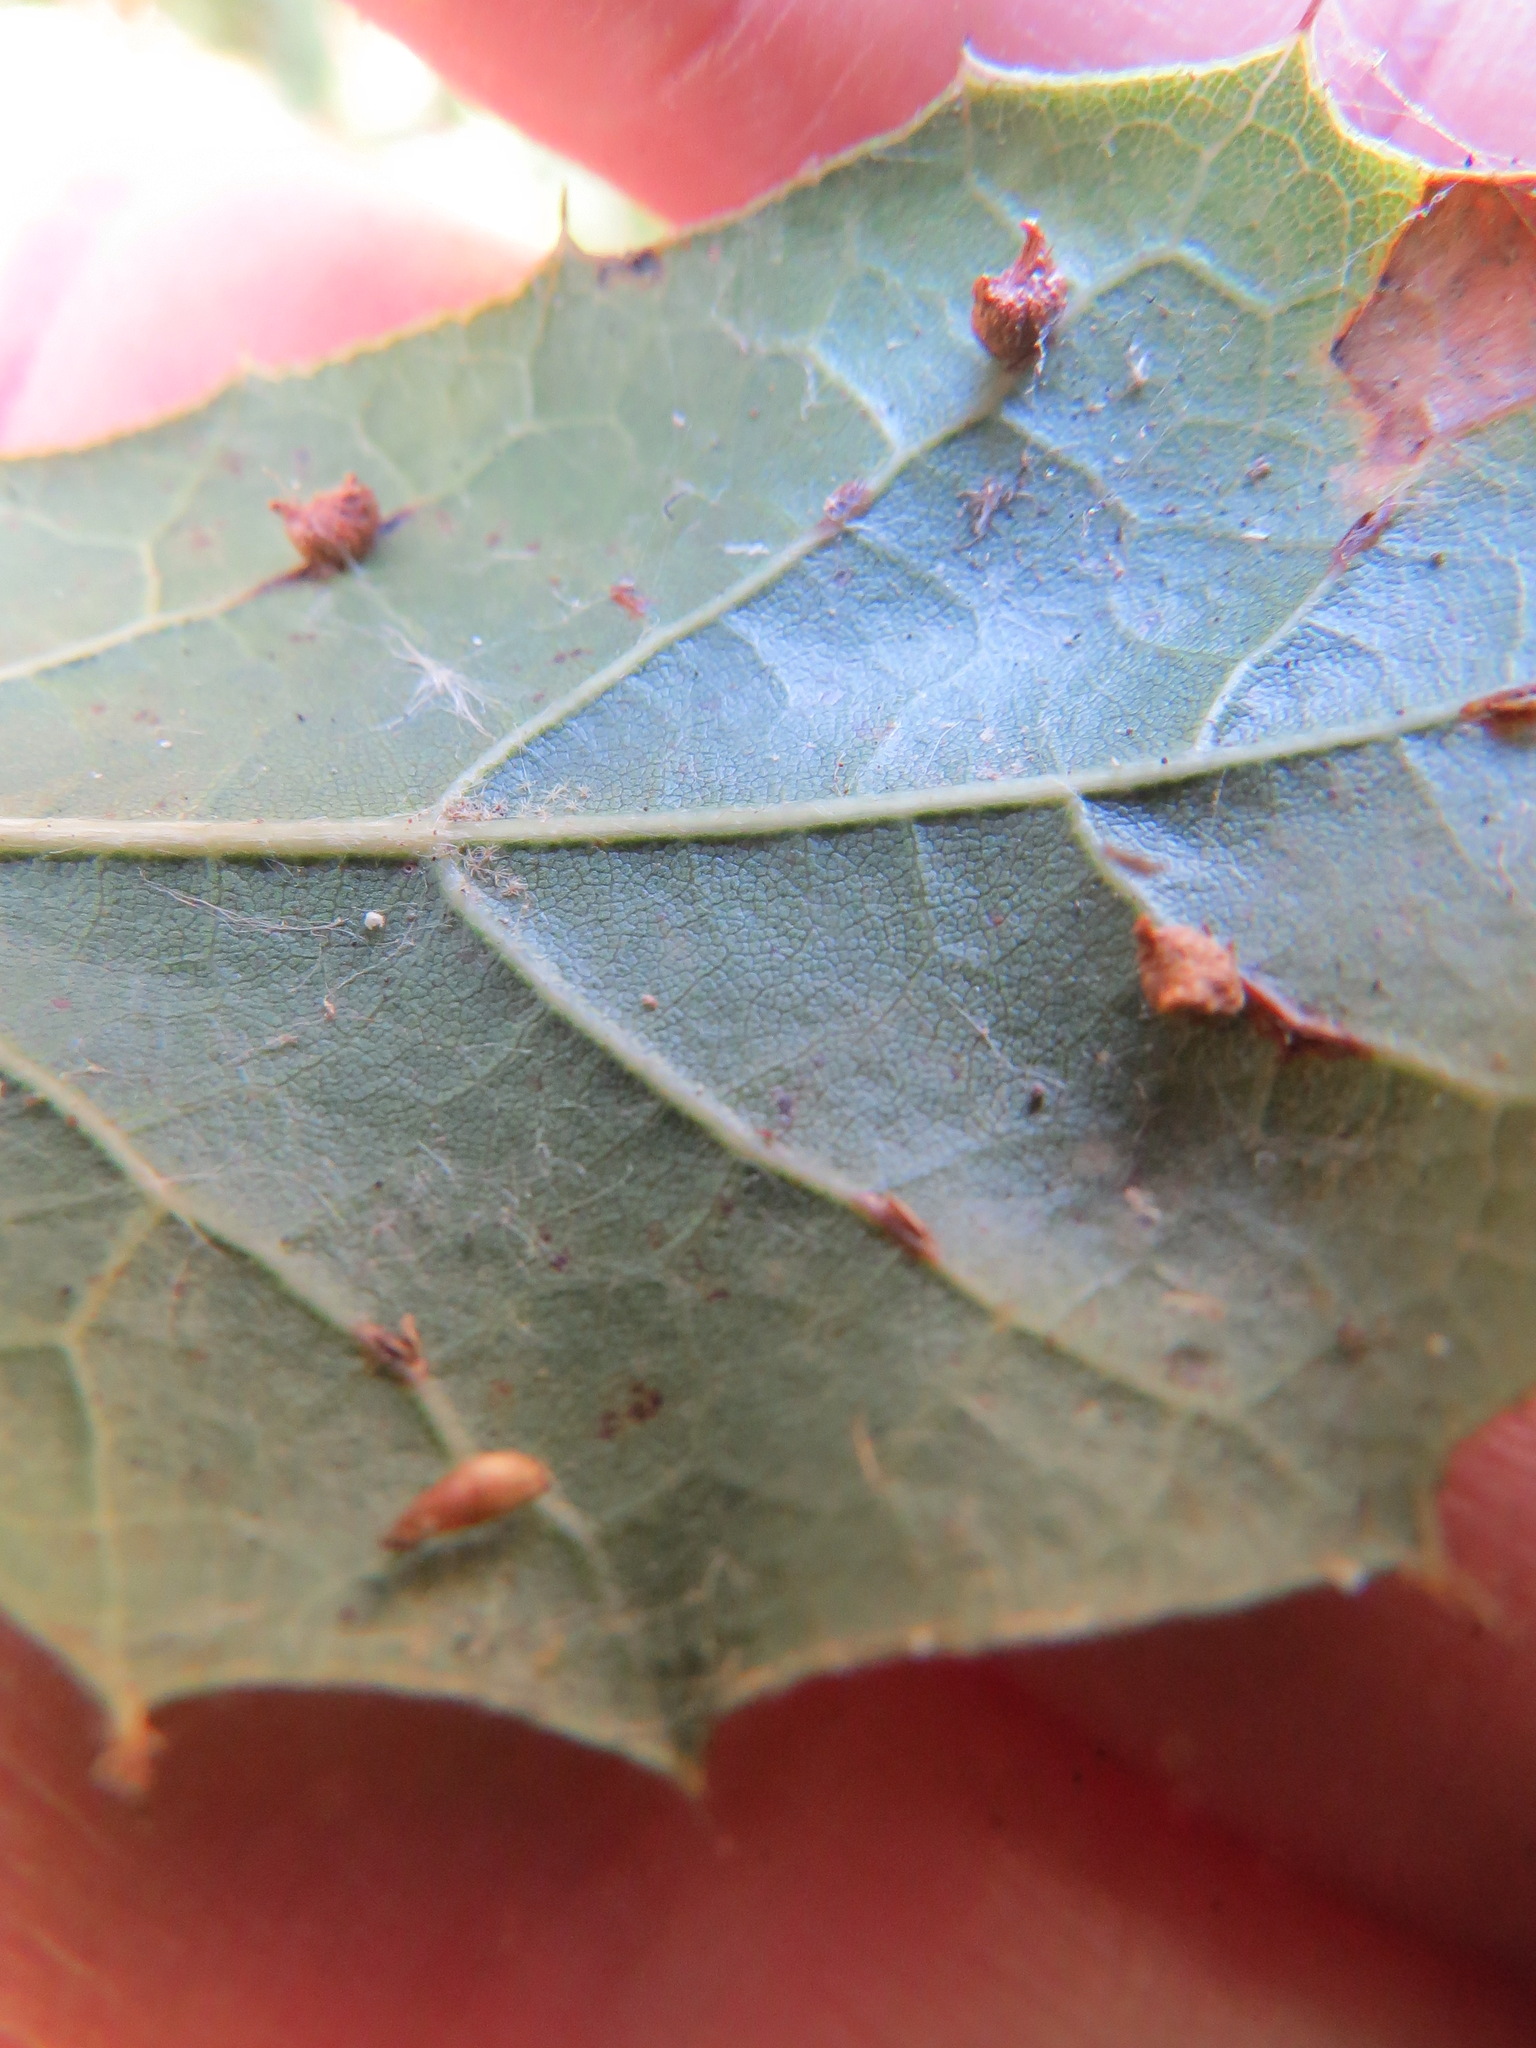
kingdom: Animalia
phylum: Arthropoda
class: Insecta
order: Hymenoptera
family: Cynipidae
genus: Dryocosmus
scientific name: Dryocosmus
